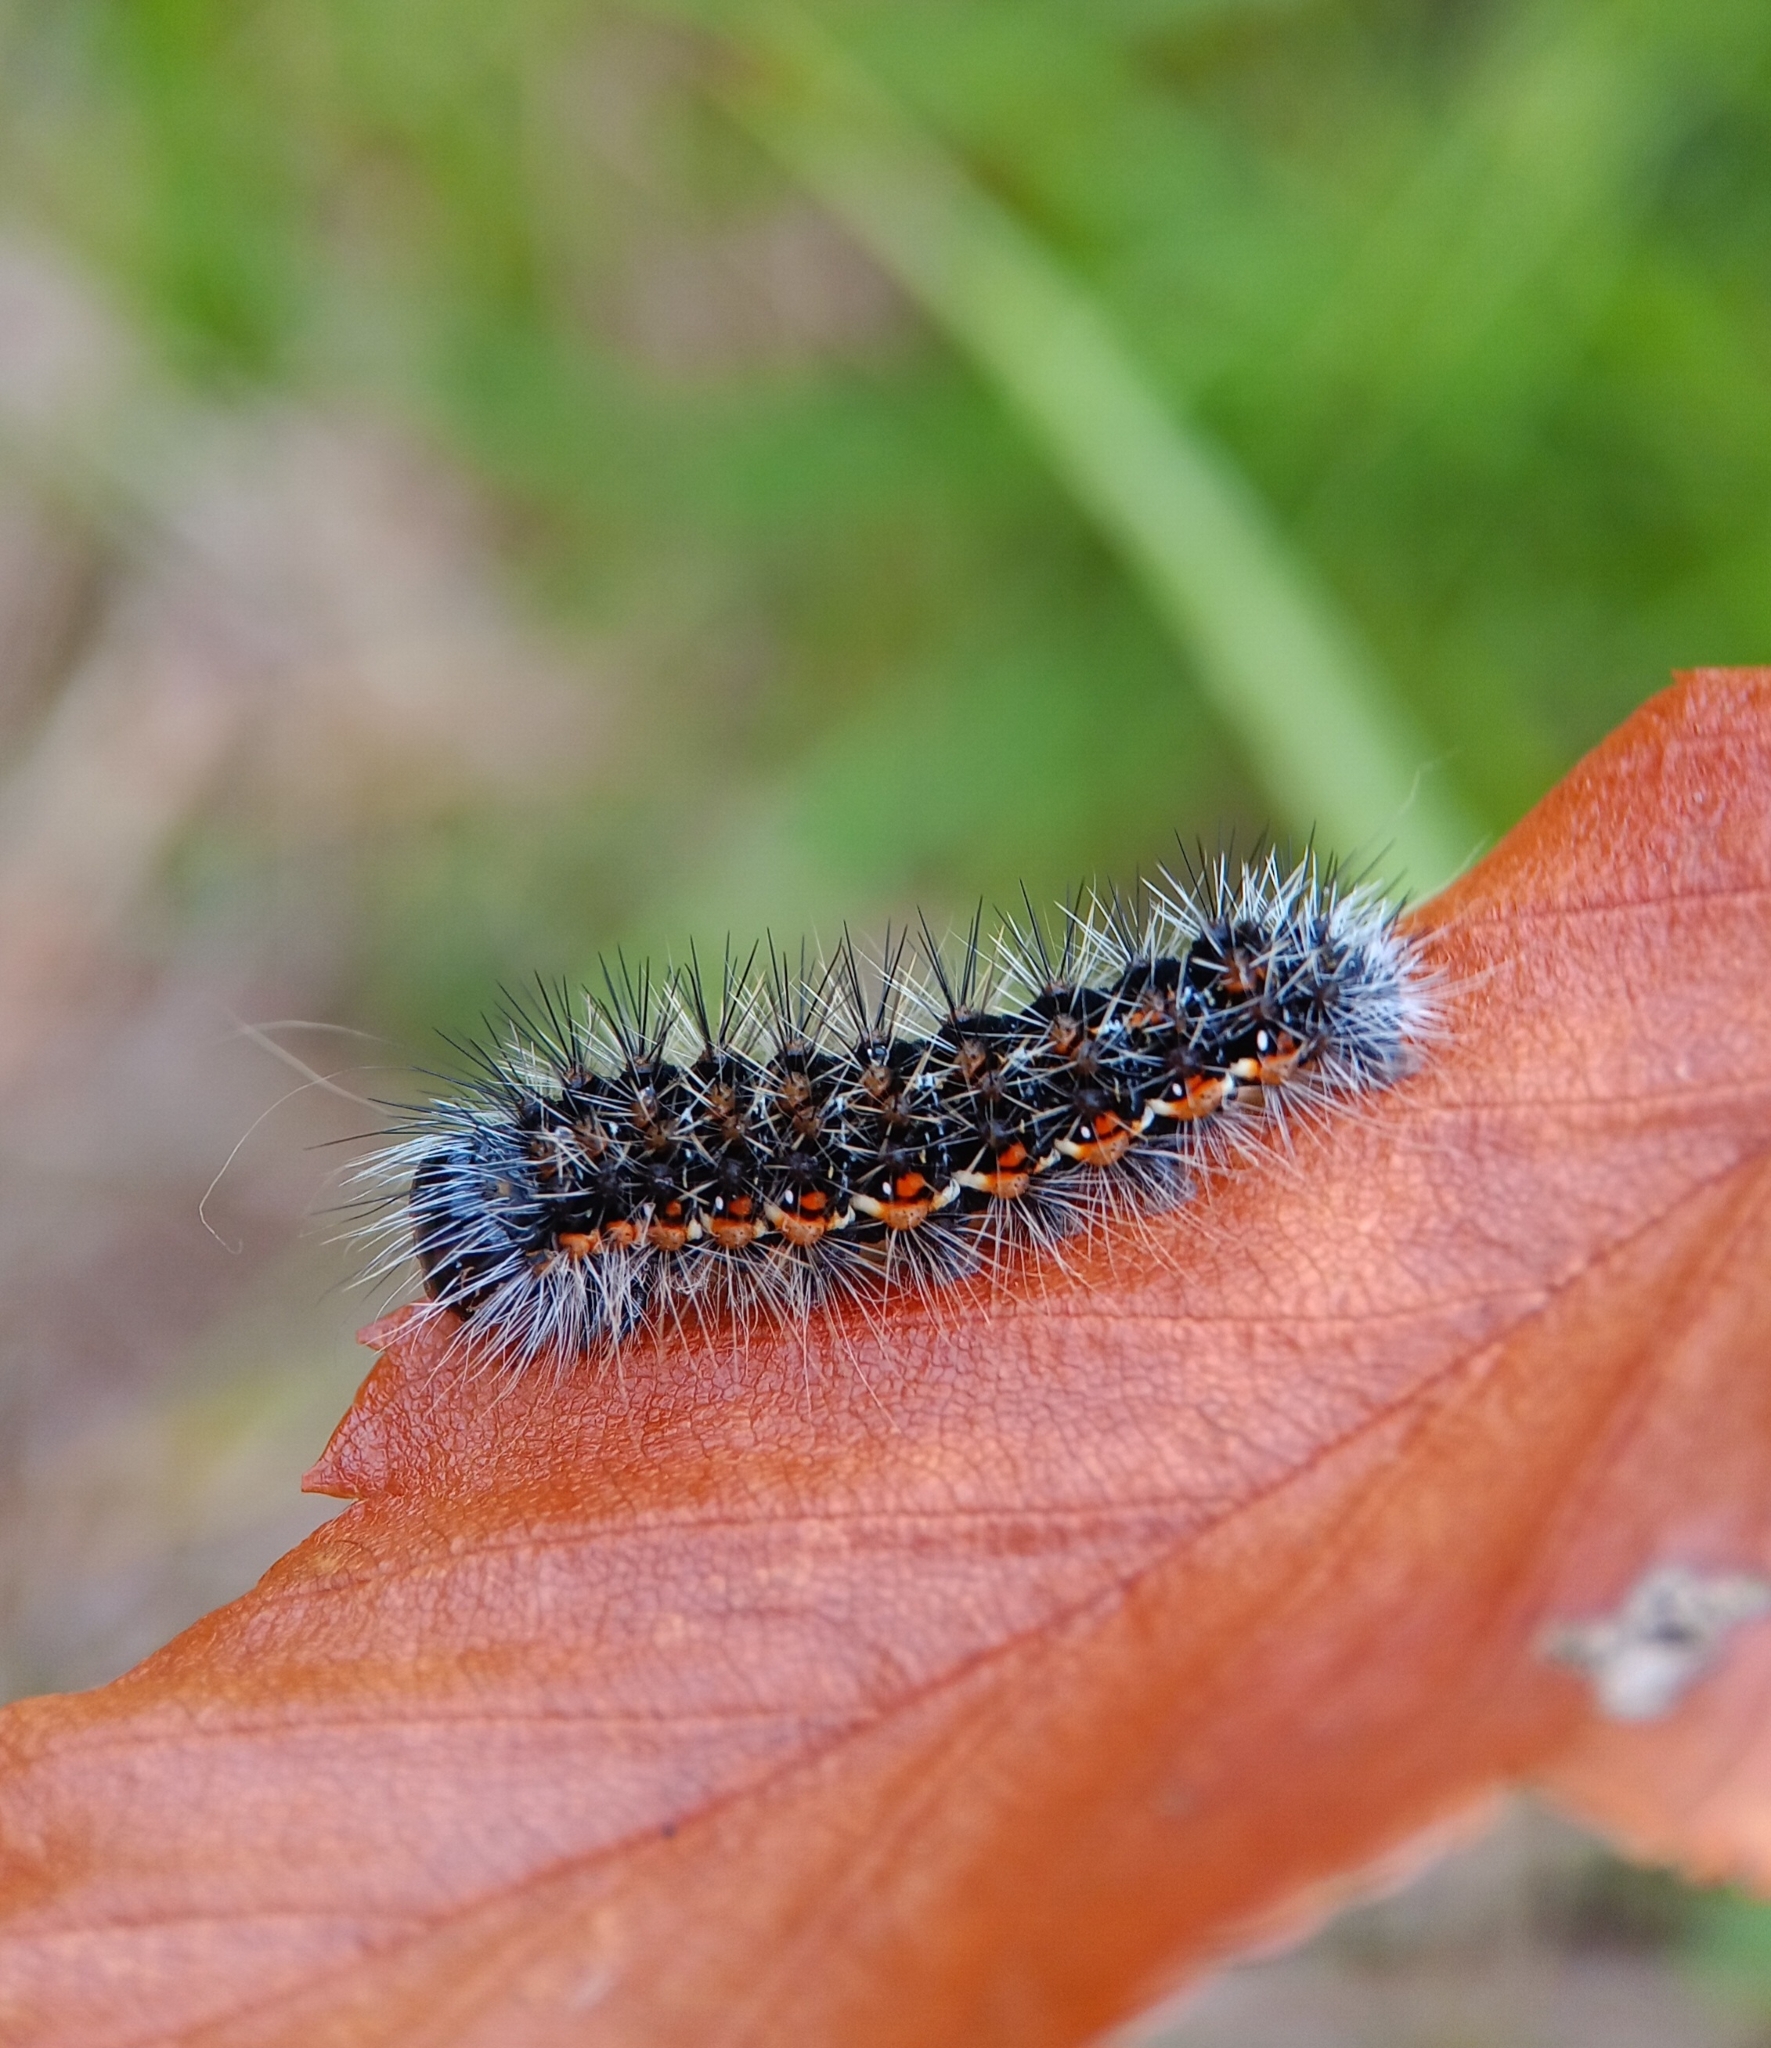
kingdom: Animalia
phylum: Arthropoda
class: Insecta
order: Lepidoptera
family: Noctuidae
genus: Acronicta
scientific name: Acronicta insularis
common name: Henry's marsh moth
